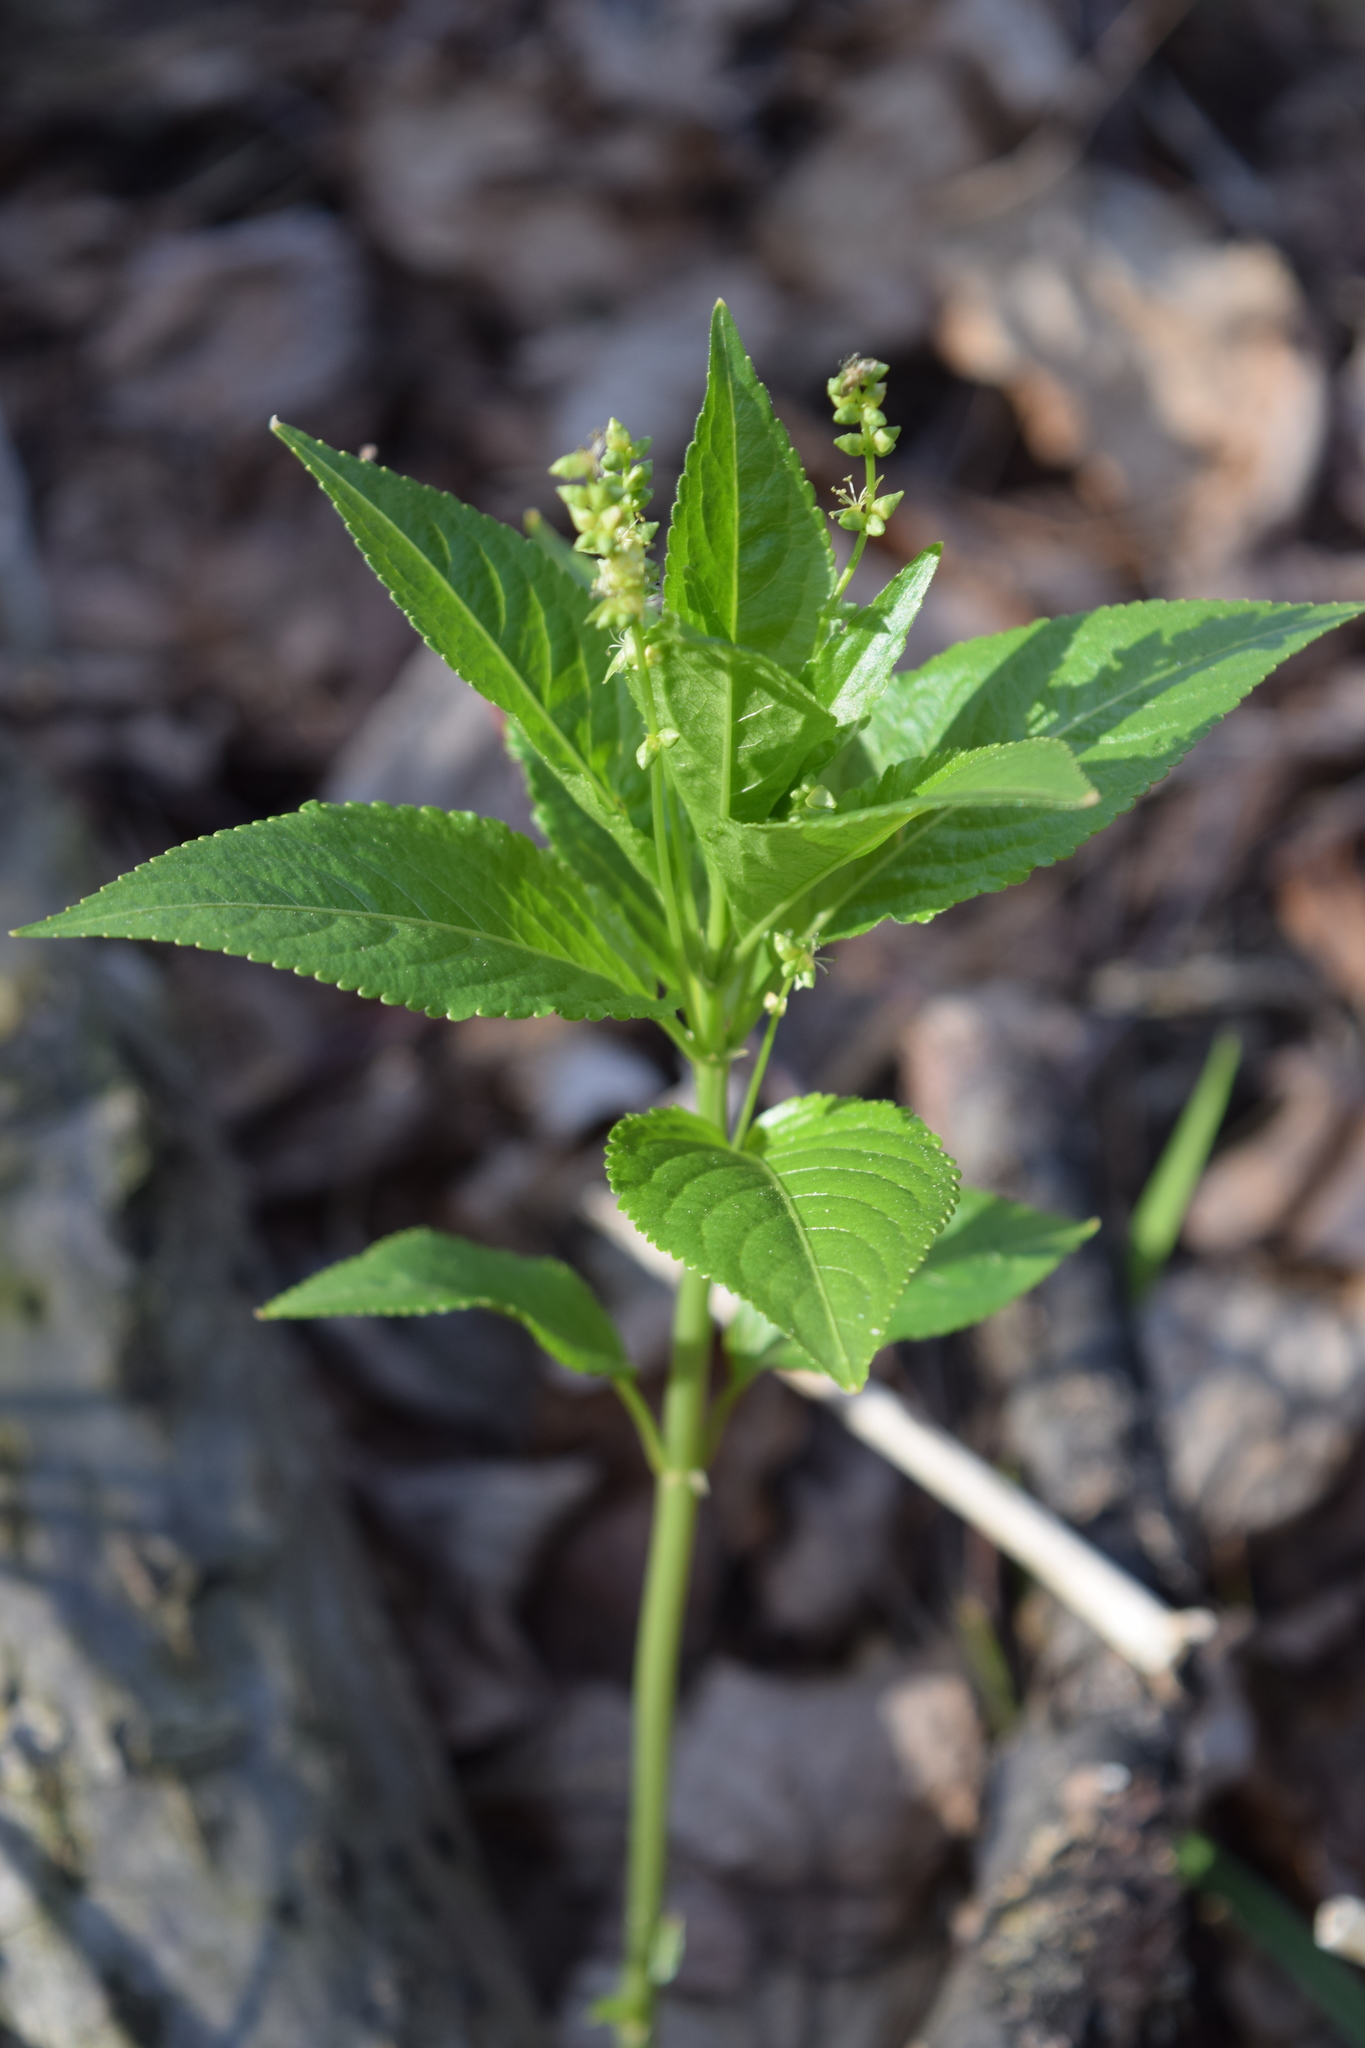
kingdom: Plantae
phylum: Tracheophyta
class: Magnoliopsida
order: Malpighiales
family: Euphorbiaceae
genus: Mercurialis
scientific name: Mercurialis perennis
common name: Dog mercury
